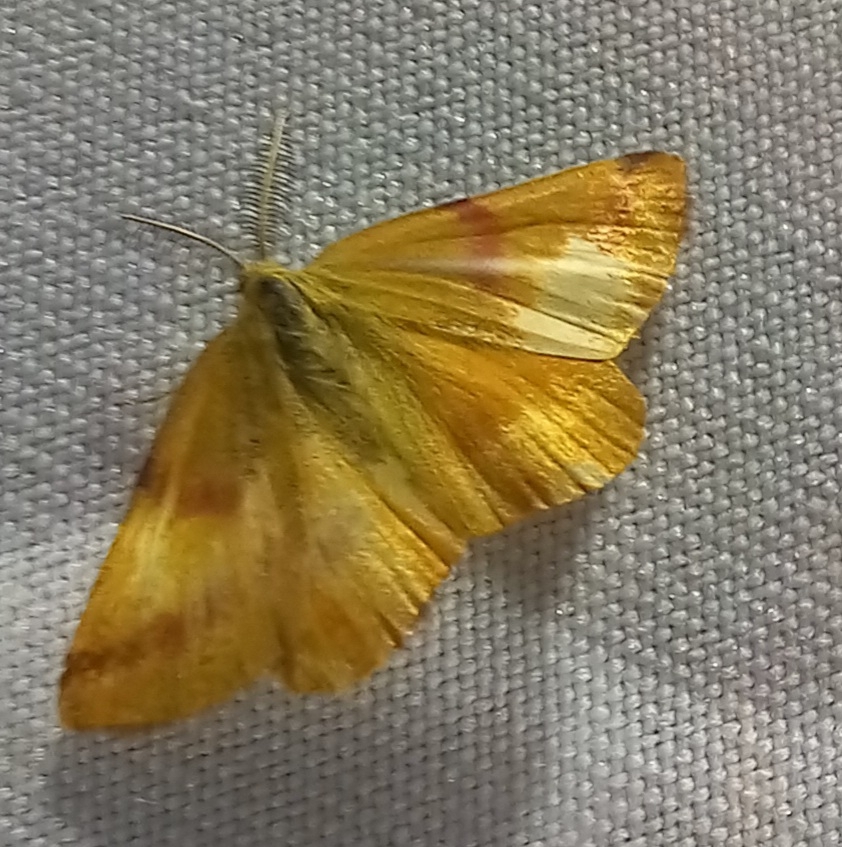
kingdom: Animalia
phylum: Arthropoda
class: Insecta
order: Lepidoptera
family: Geometridae
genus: Lythria
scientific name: Lythria purpuraria
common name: Purple-barred yellow
